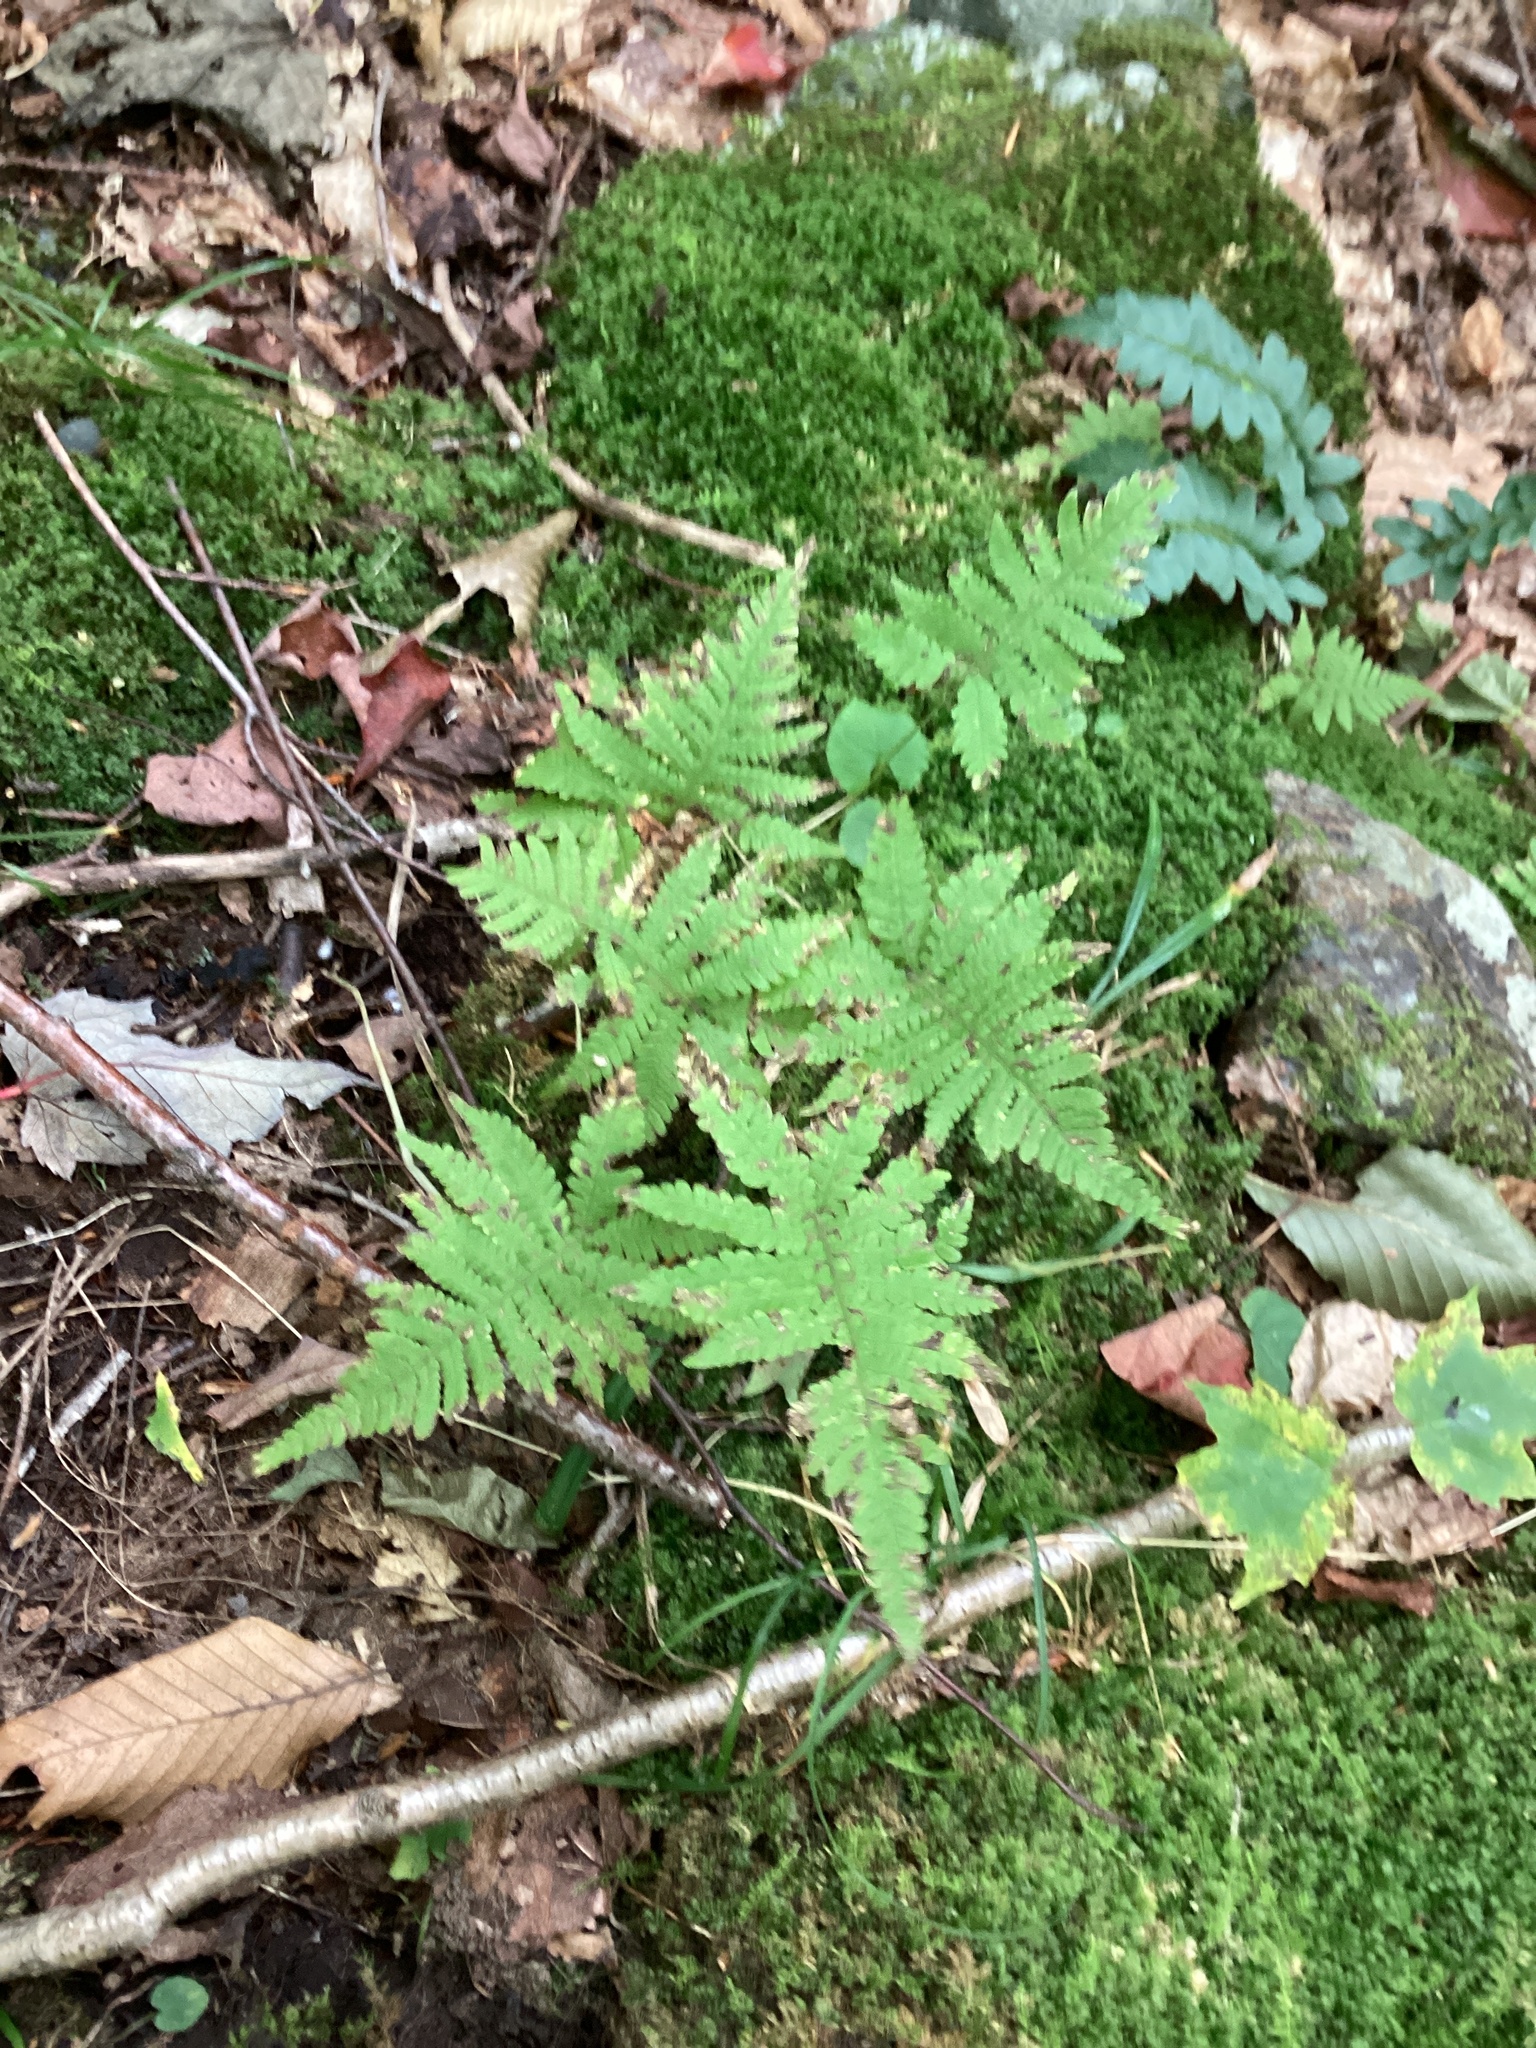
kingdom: Plantae
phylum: Tracheophyta
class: Polypodiopsida
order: Polypodiales
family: Thelypteridaceae
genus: Phegopteris
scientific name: Phegopteris connectilis
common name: Beech fern
